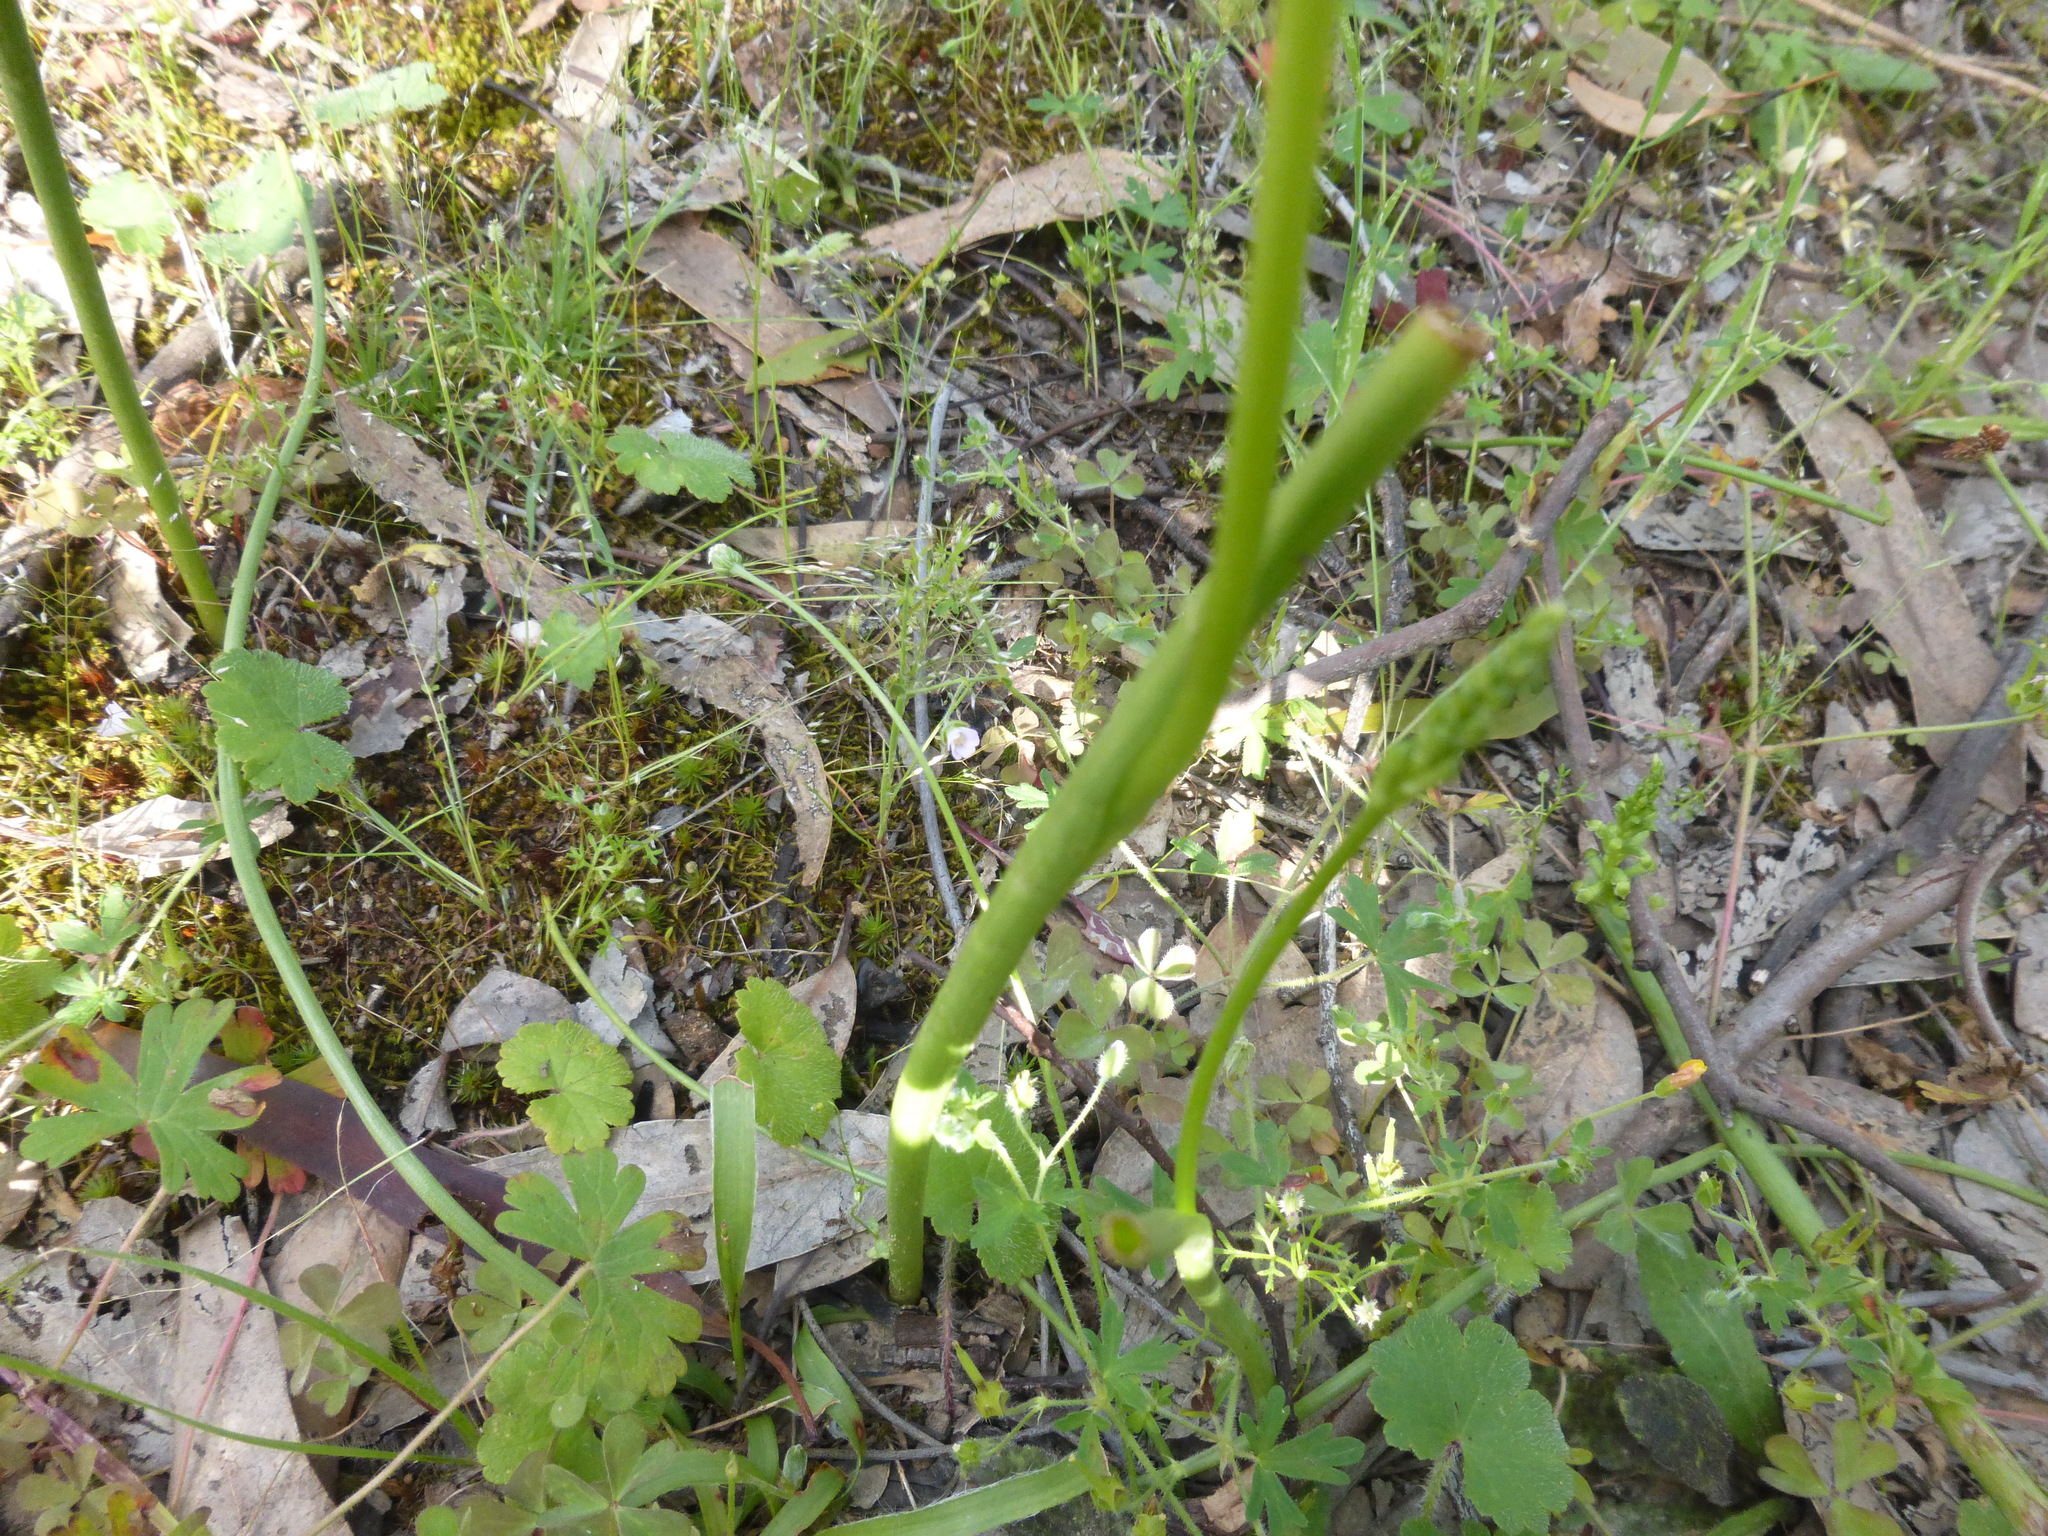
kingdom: Plantae
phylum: Tracheophyta
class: Liliopsida
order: Asparagales
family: Orchidaceae
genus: Microtis
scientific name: Microtis unifolia
